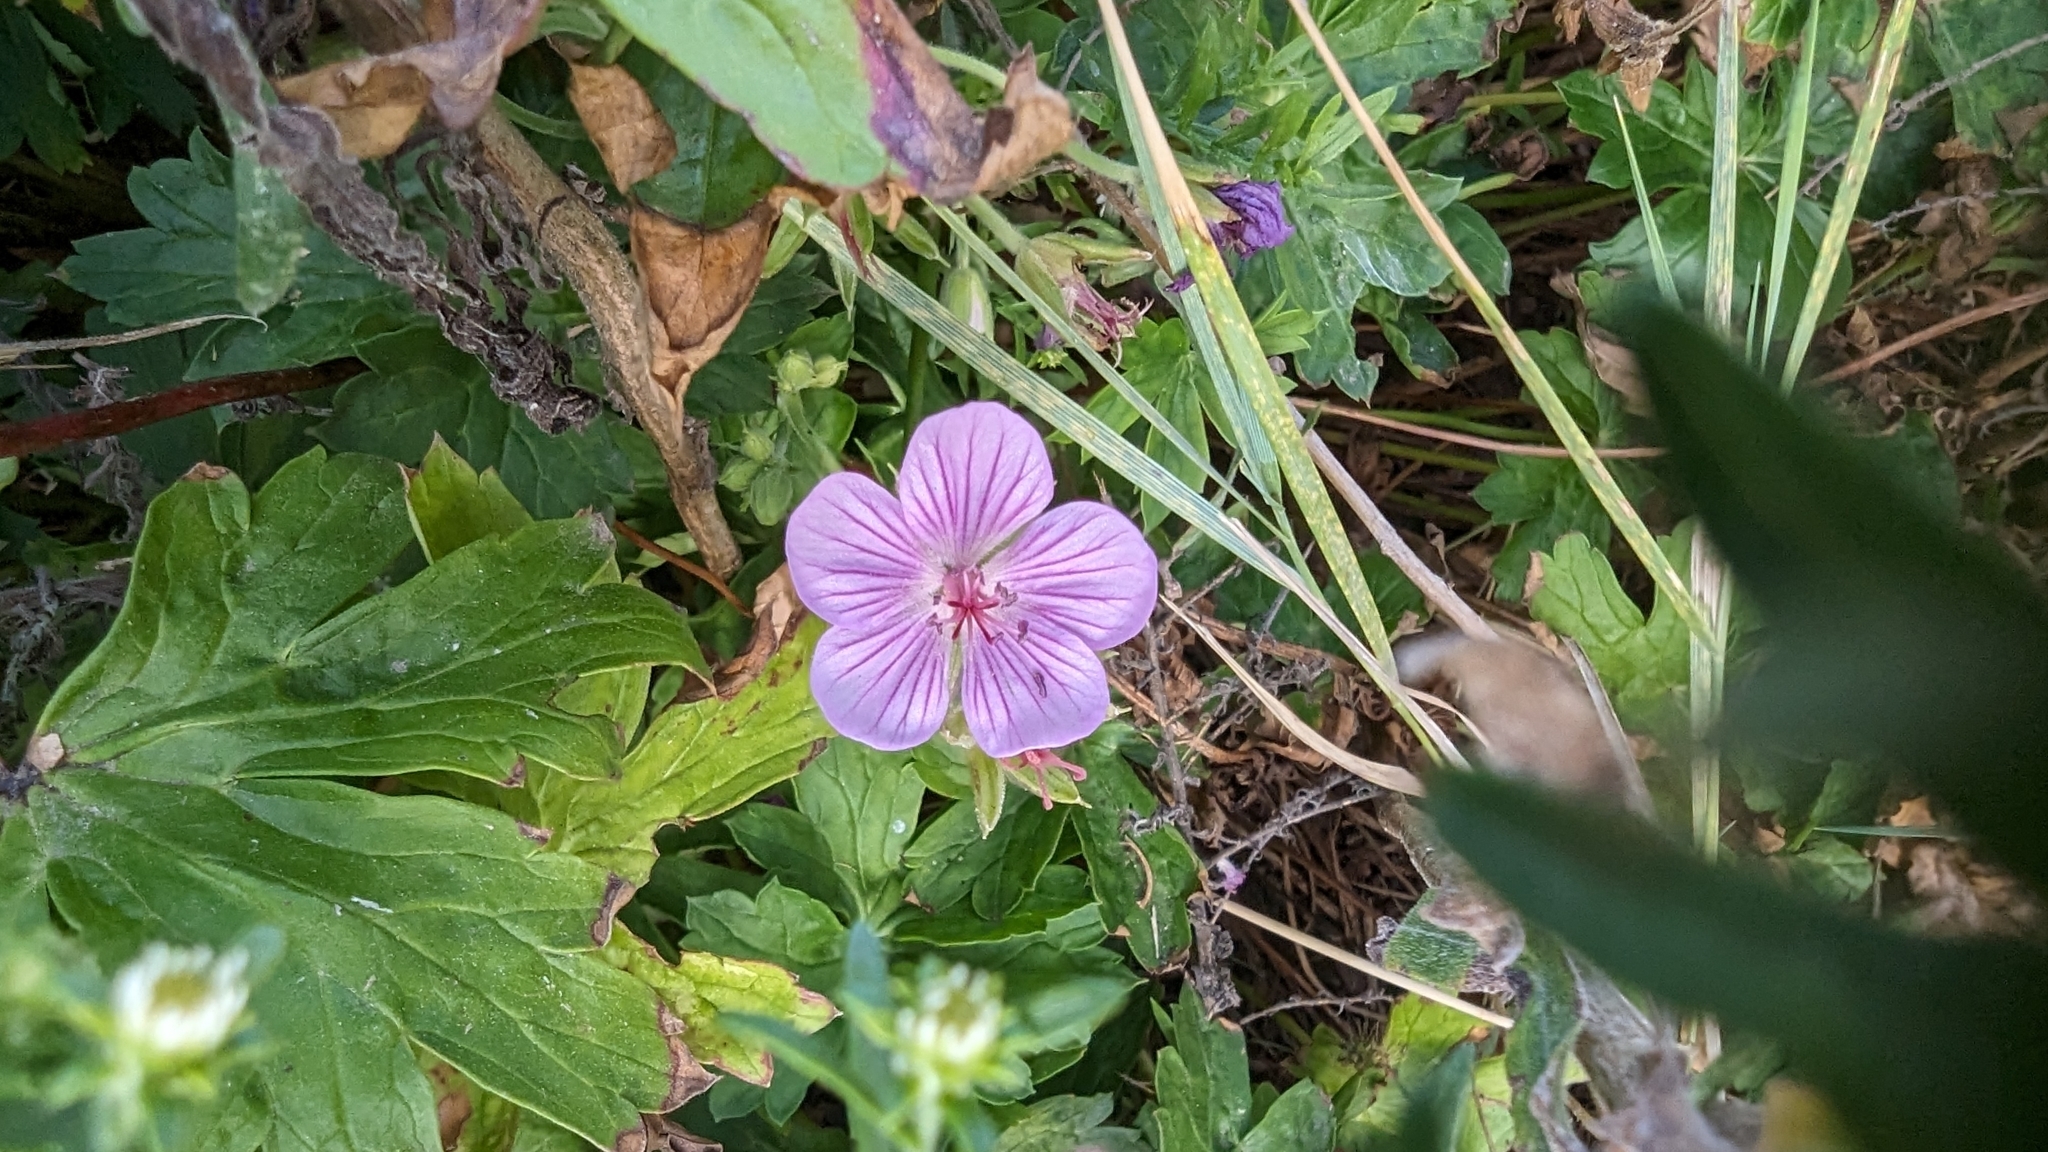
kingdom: Plantae
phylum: Tracheophyta
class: Magnoliopsida
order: Geraniales
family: Geraniaceae
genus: Geranium
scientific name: Geranium caespitosum
